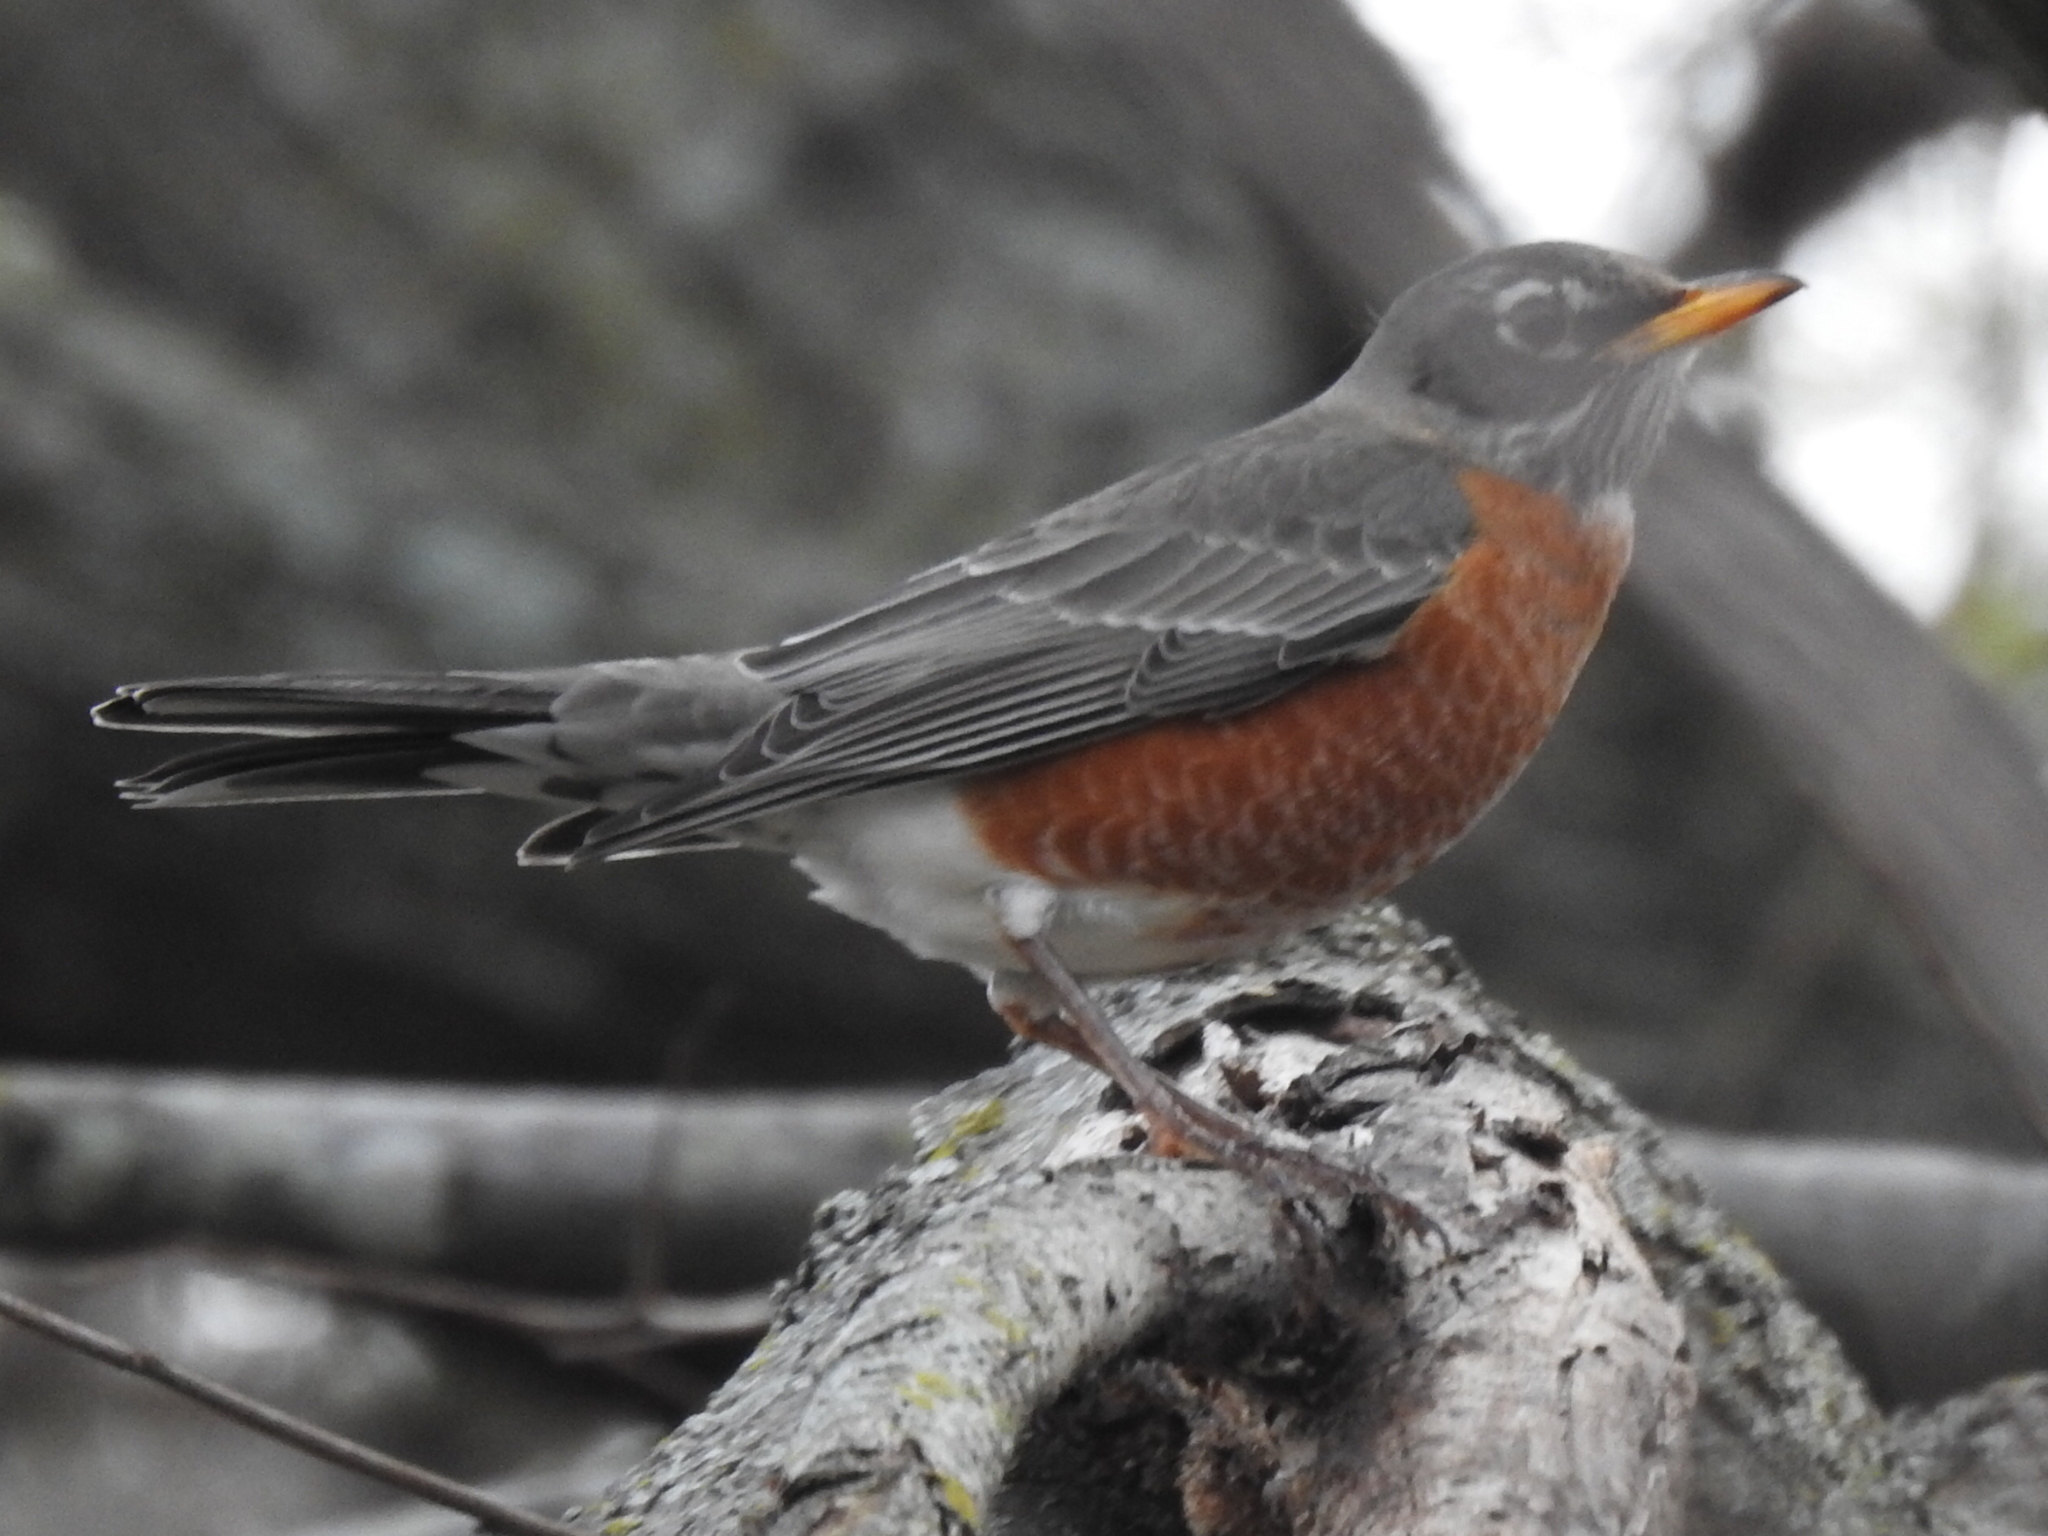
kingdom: Animalia
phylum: Chordata
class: Aves
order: Passeriformes
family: Turdidae
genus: Turdus
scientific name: Turdus migratorius
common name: American robin
